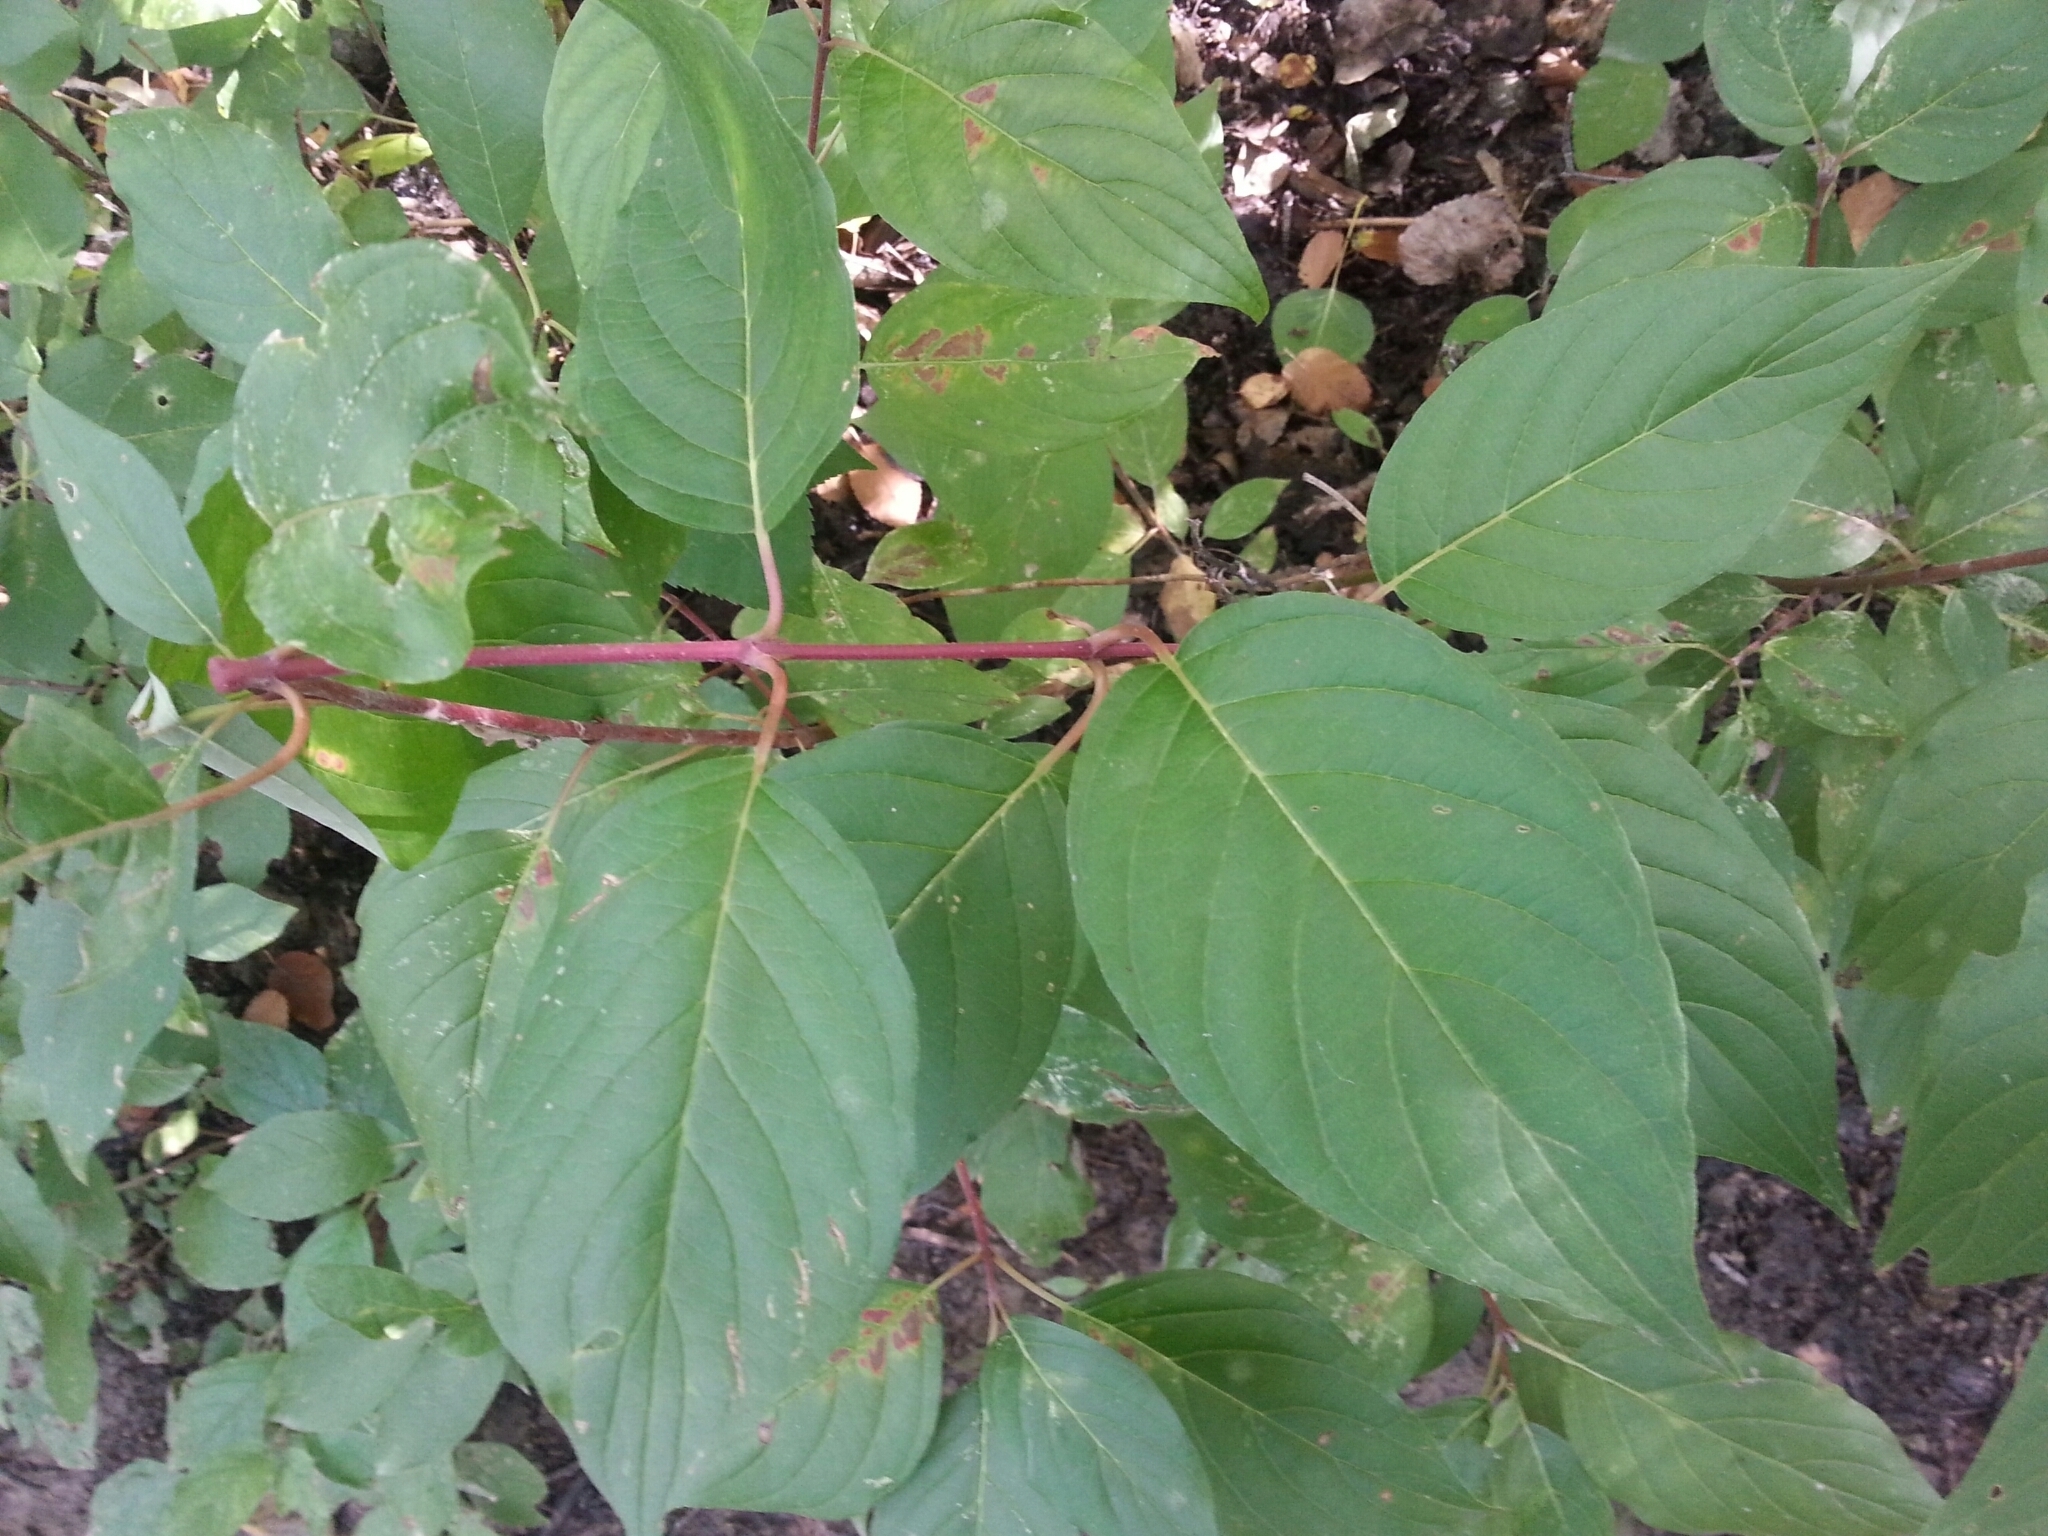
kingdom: Plantae
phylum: Tracheophyta
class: Magnoliopsida
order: Cornales
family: Cornaceae
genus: Cornus
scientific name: Cornus sericea
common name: Red-osier dogwood
